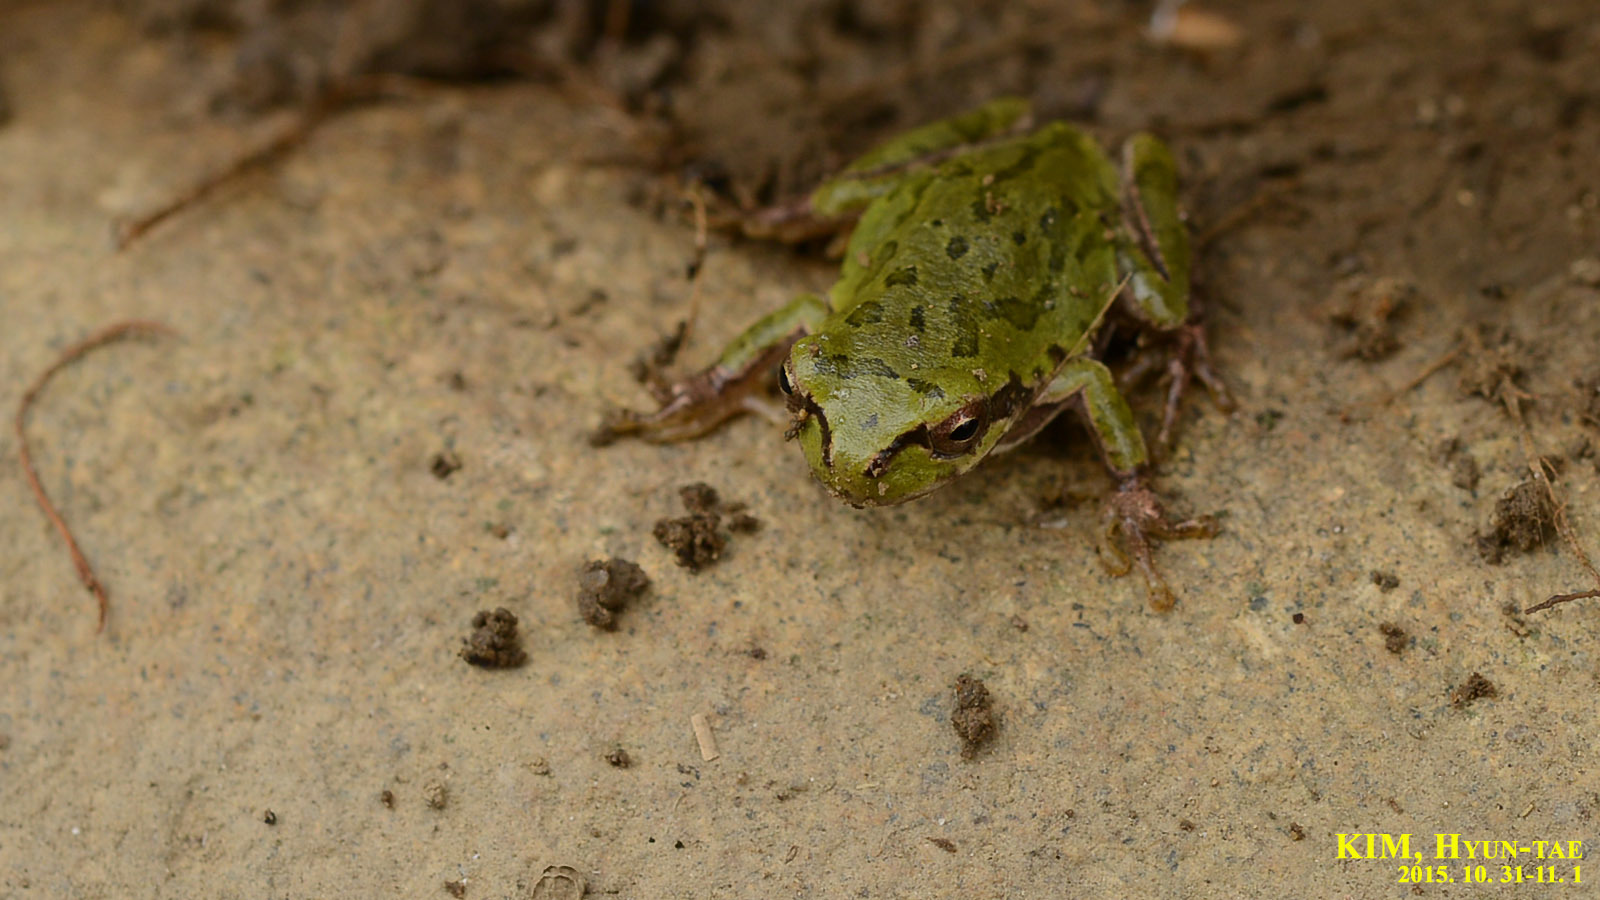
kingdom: Animalia
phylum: Chordata
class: Amphibia
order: Anura
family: Hylidae
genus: Dryophytes
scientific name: Dryophytes japonicus
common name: Japanese treefrog
